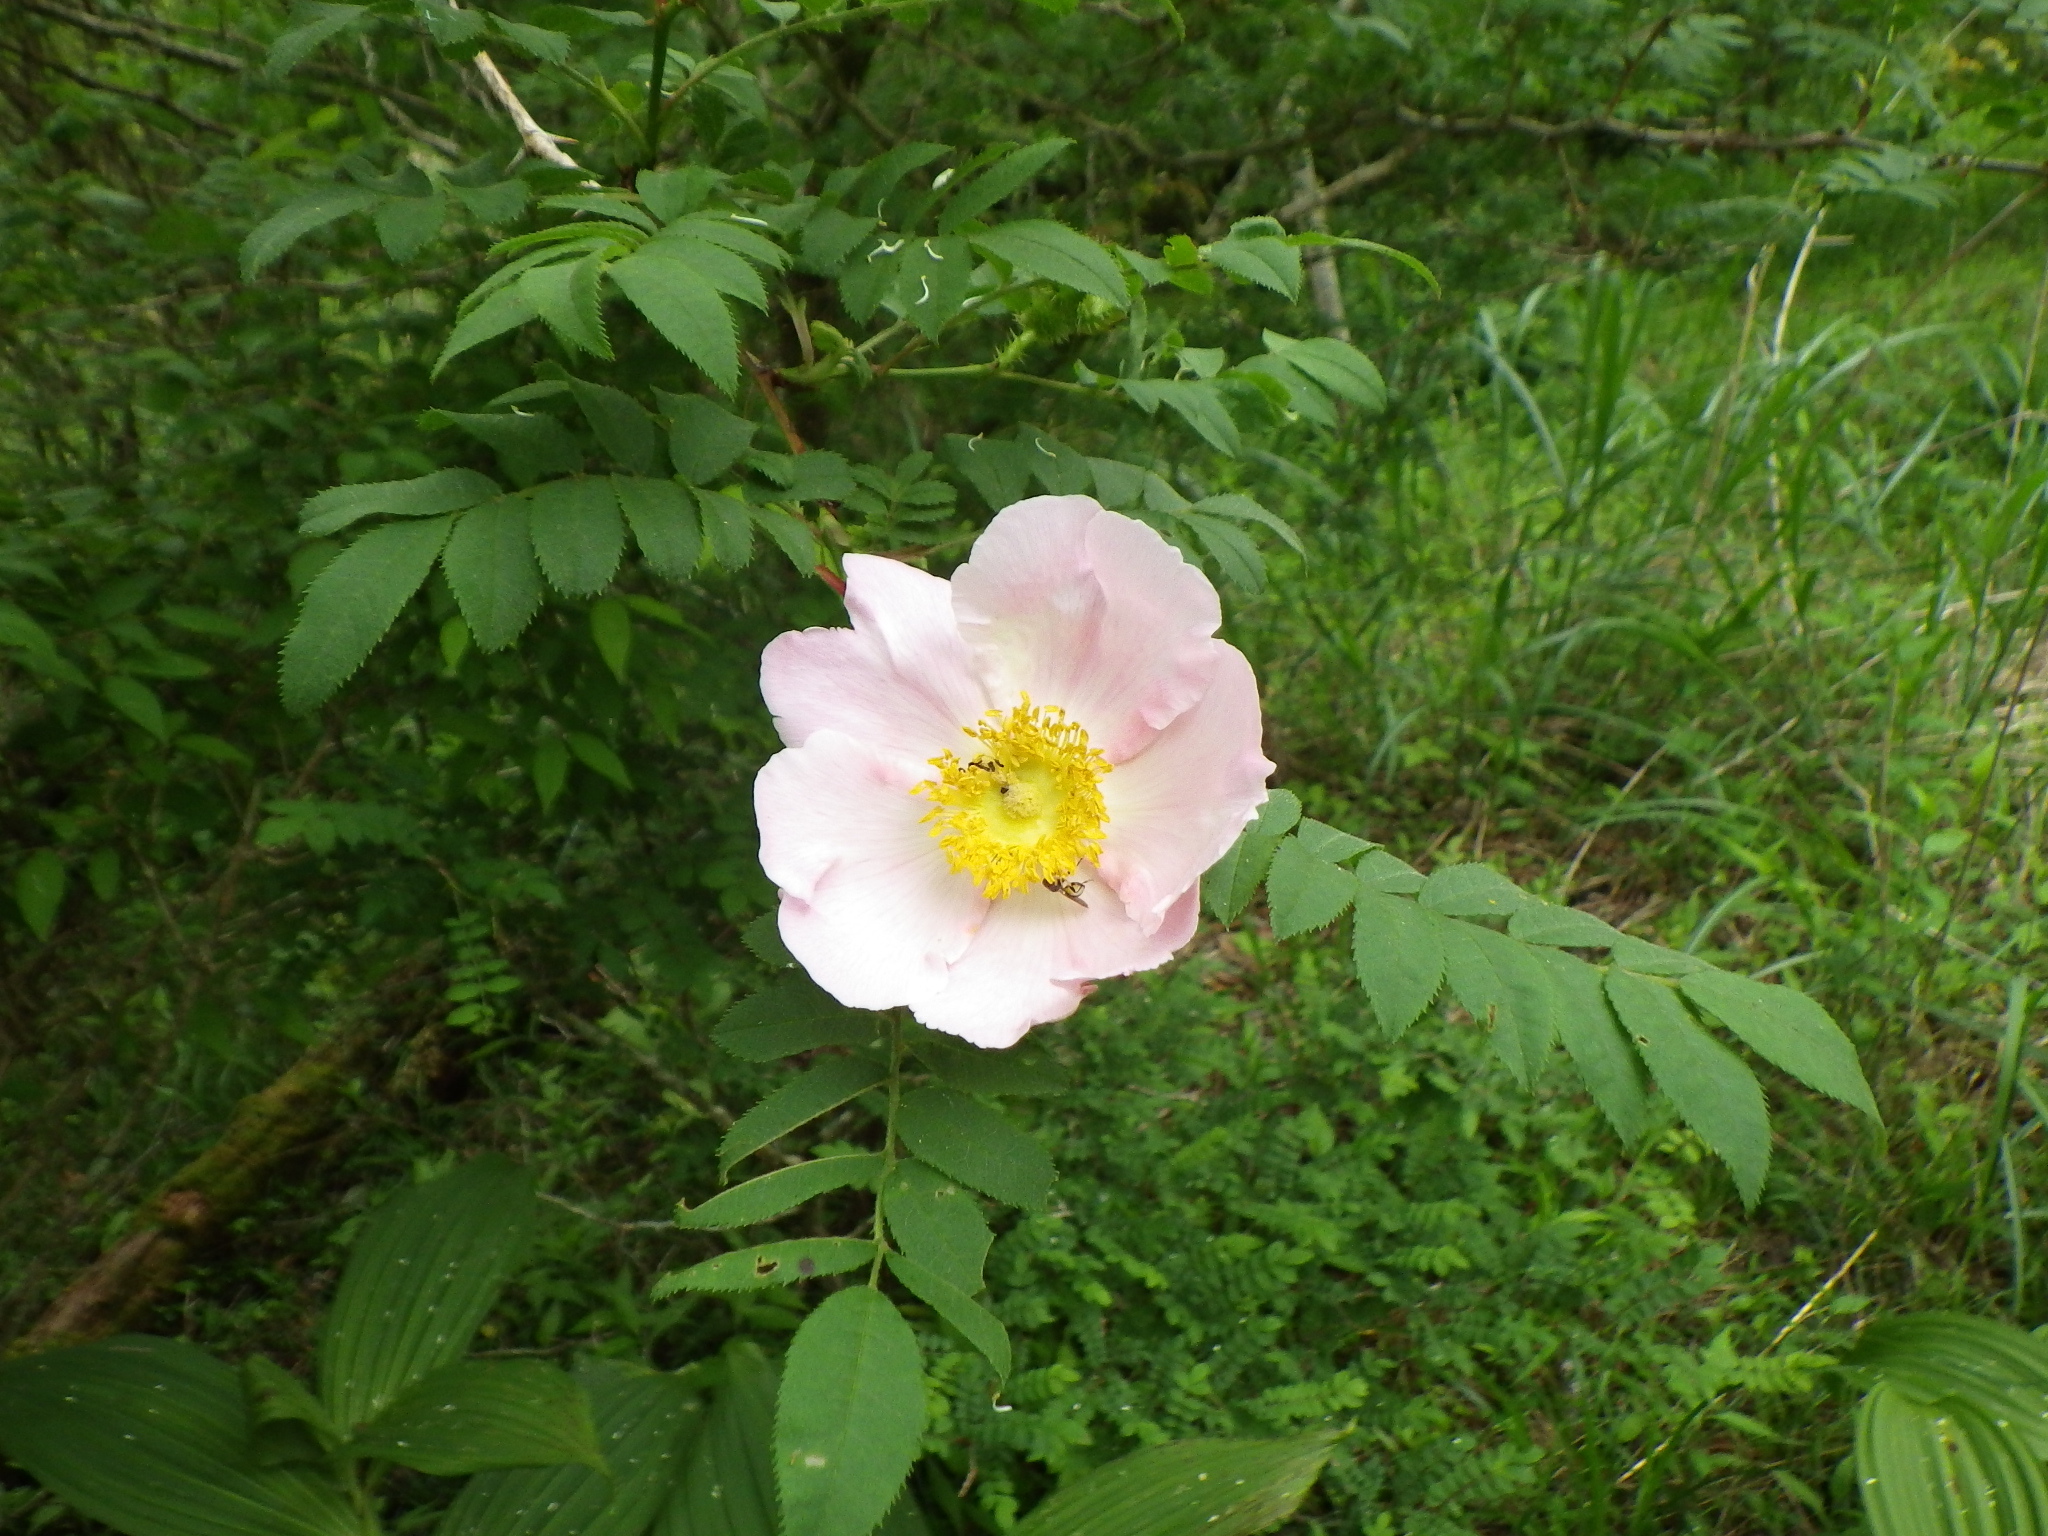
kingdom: Plantae
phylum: Tracheophyta
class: Magnoliopsida
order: Rosales
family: Rosaceae
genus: Rosa
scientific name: Rosa hirtula
